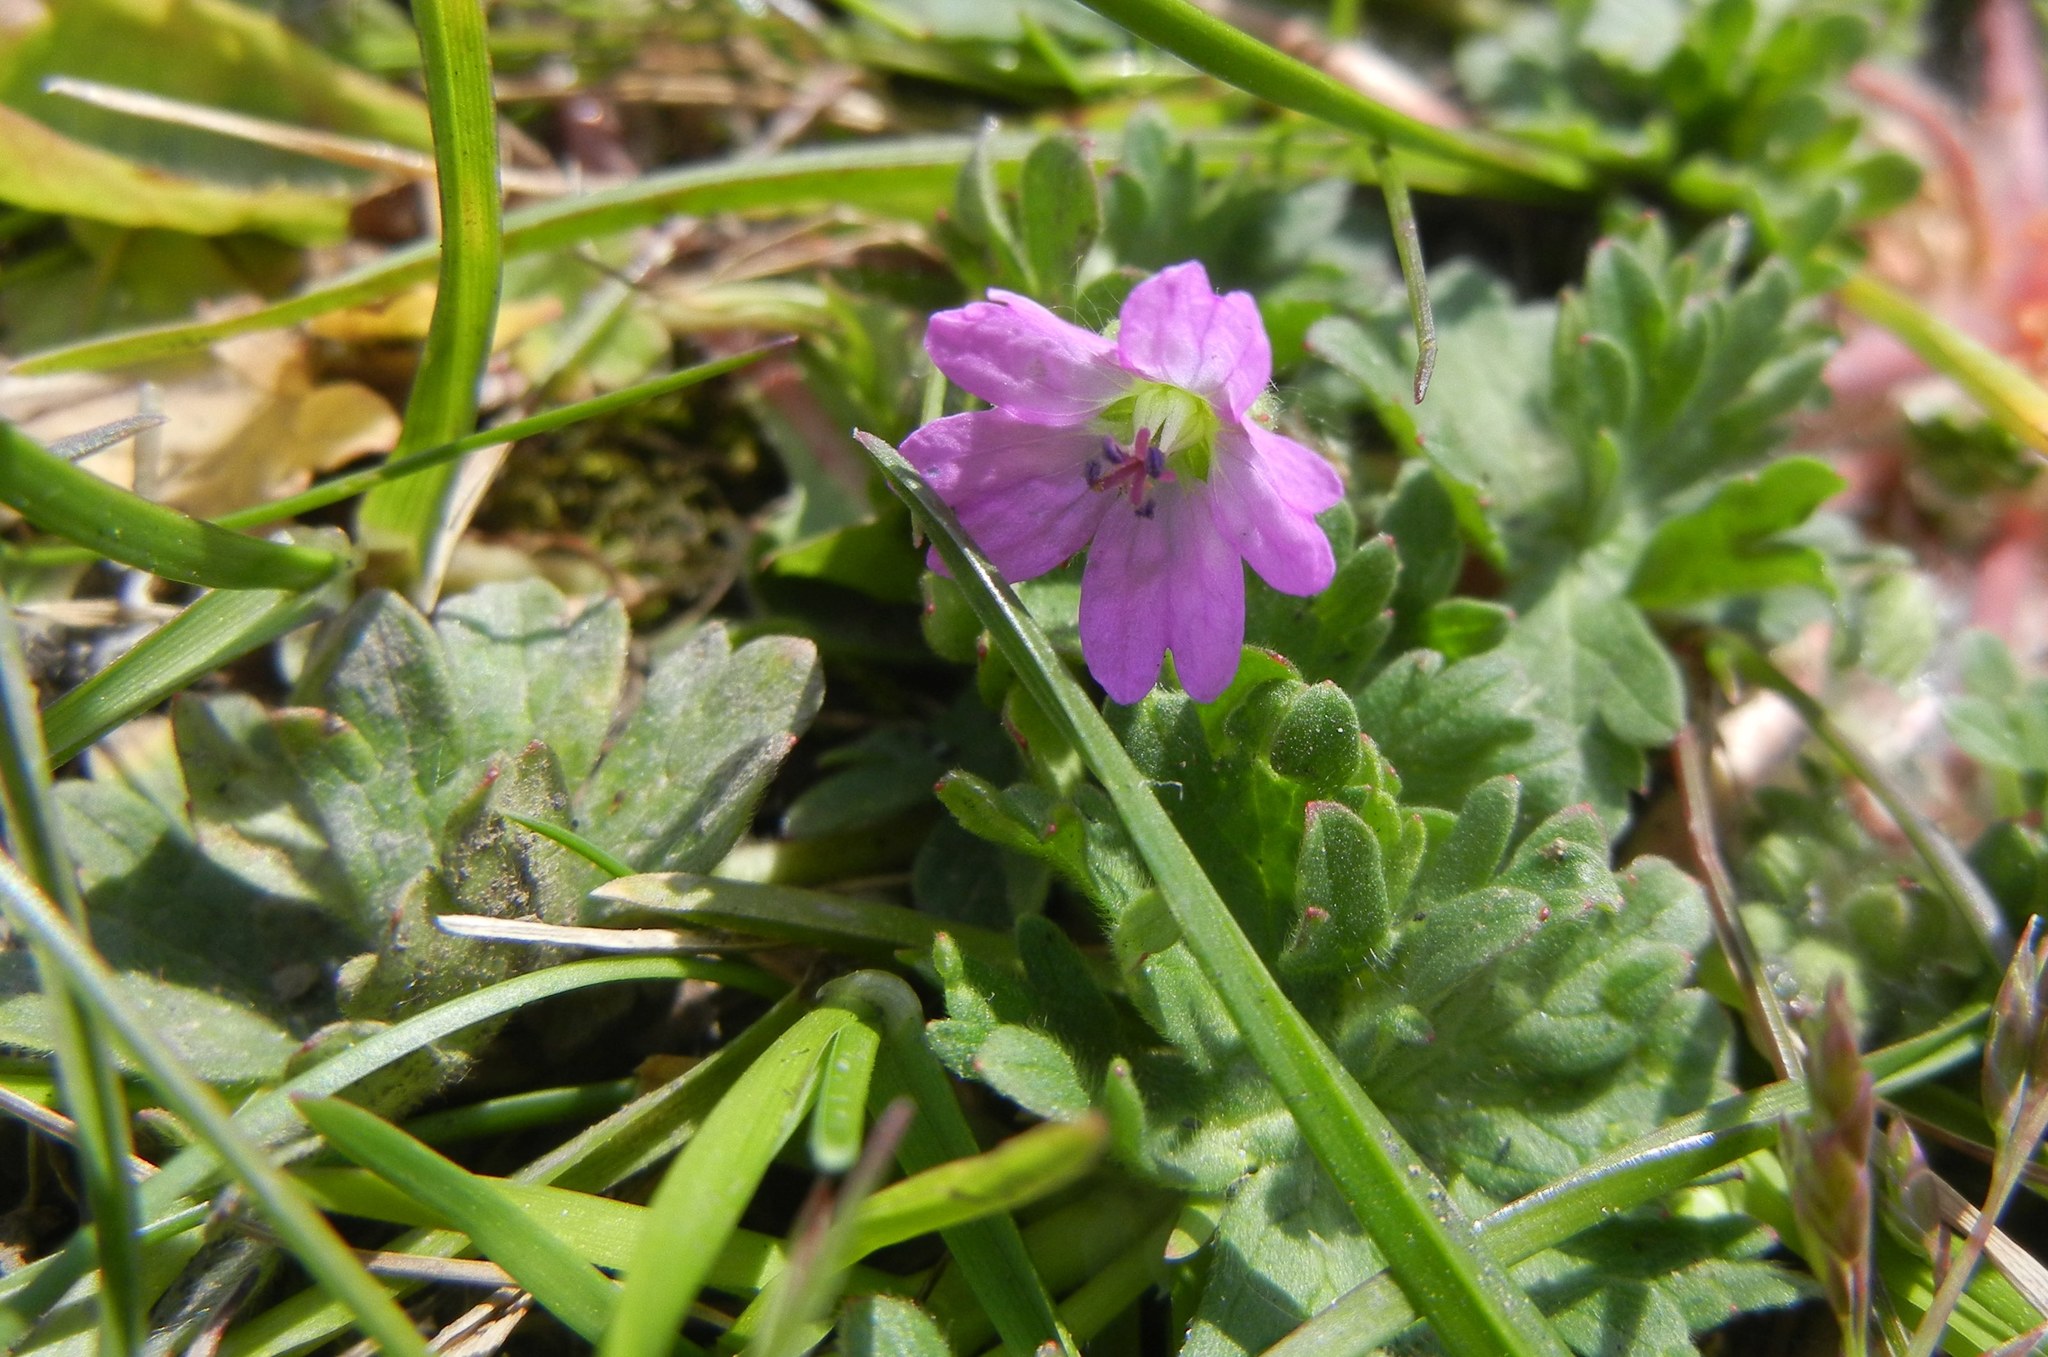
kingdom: Plantae
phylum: Tracheophyta
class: Magnoliopsida
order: Geraniales
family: Geraniaceae
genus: Geranium
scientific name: Geranium molle
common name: Dove's-foot crane's-bill
